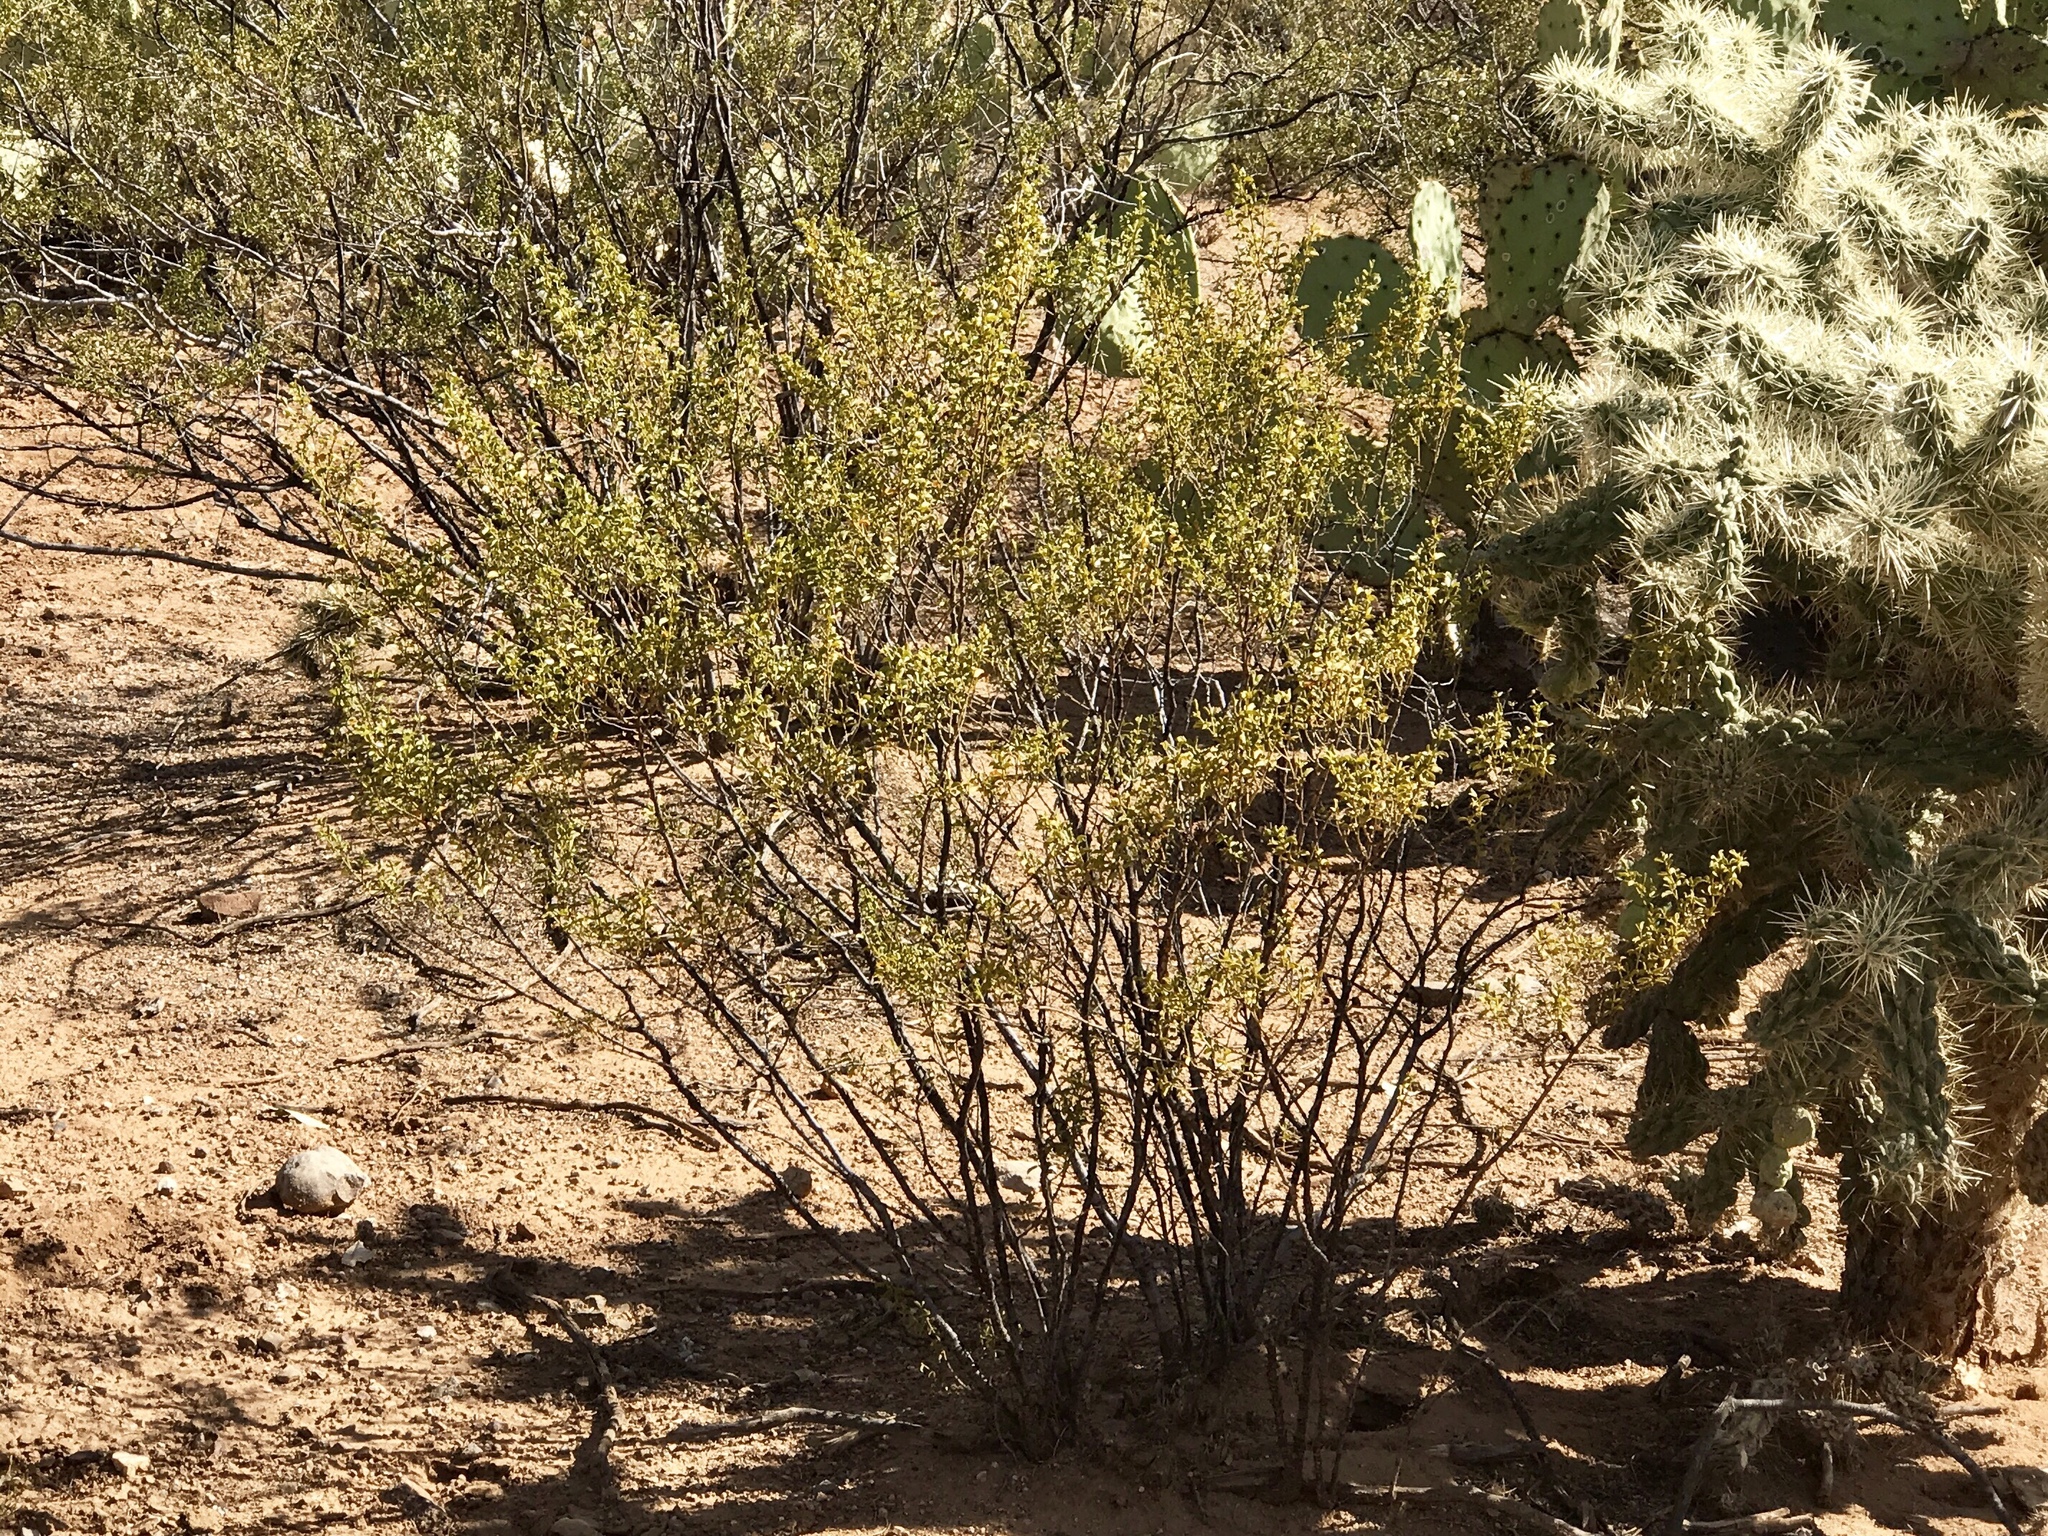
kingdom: Plantae
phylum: Tracheophyta
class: Magnoliopsida
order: Zygophyllales
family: Zygophyllaceae
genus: Larrea
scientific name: Larrea tridentata
